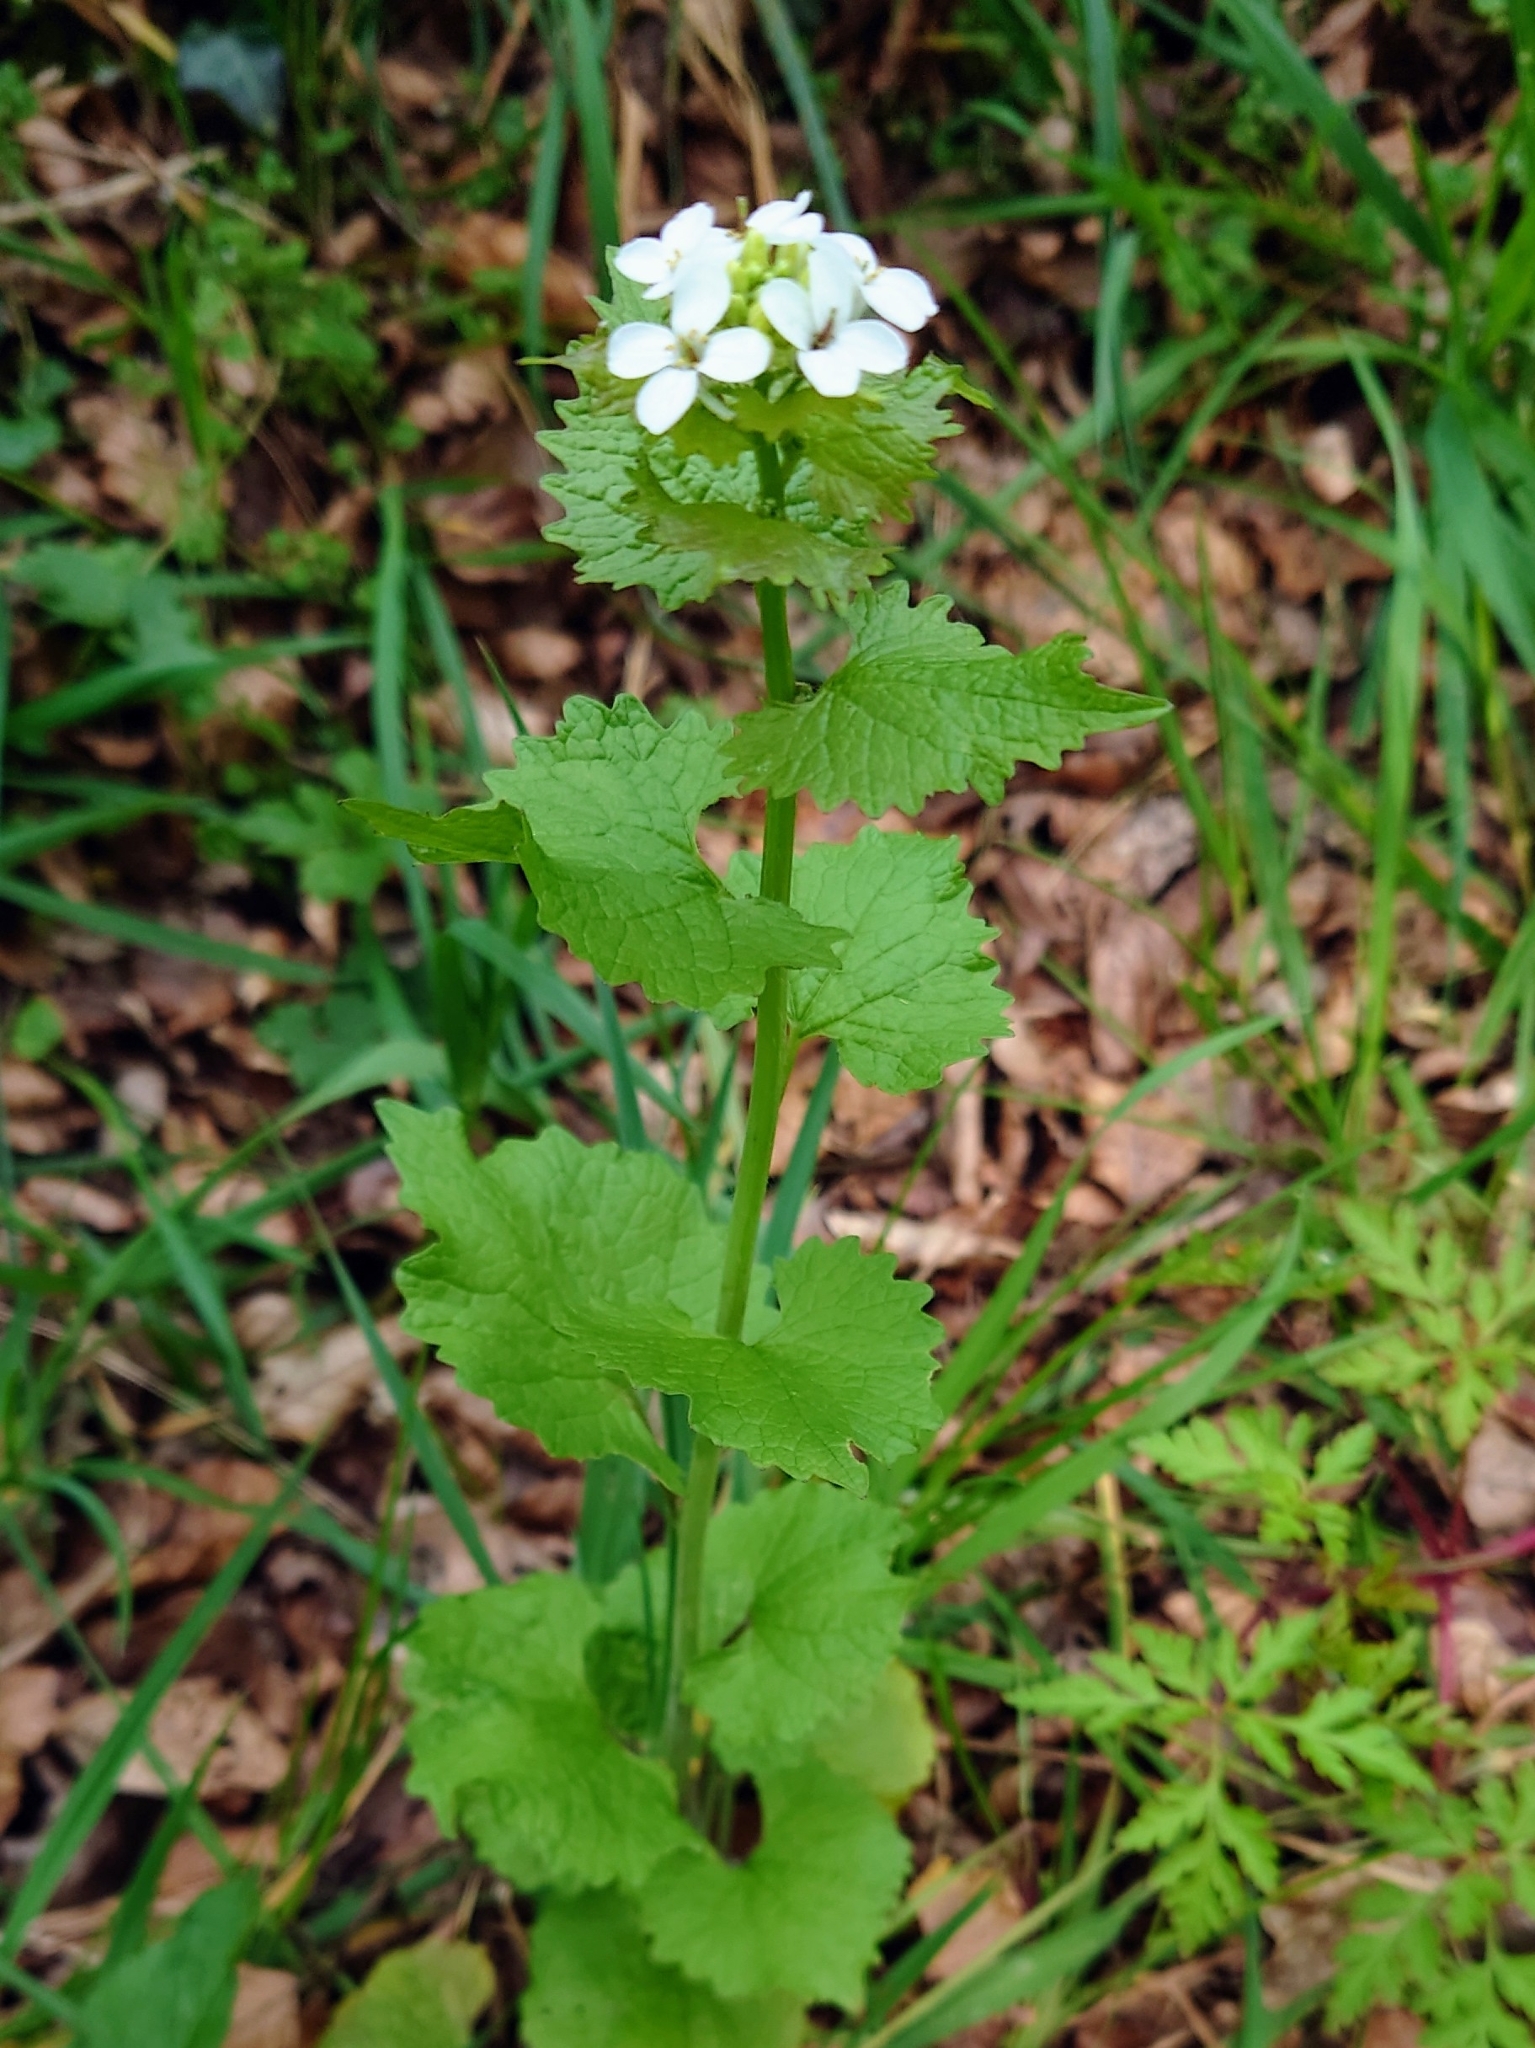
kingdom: Plantae
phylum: Tracheophyta
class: Magnoliopsida
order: Brassicales
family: Brassicaceae
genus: Alliaria
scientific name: Alliaria petiolata
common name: Garlic mustard
